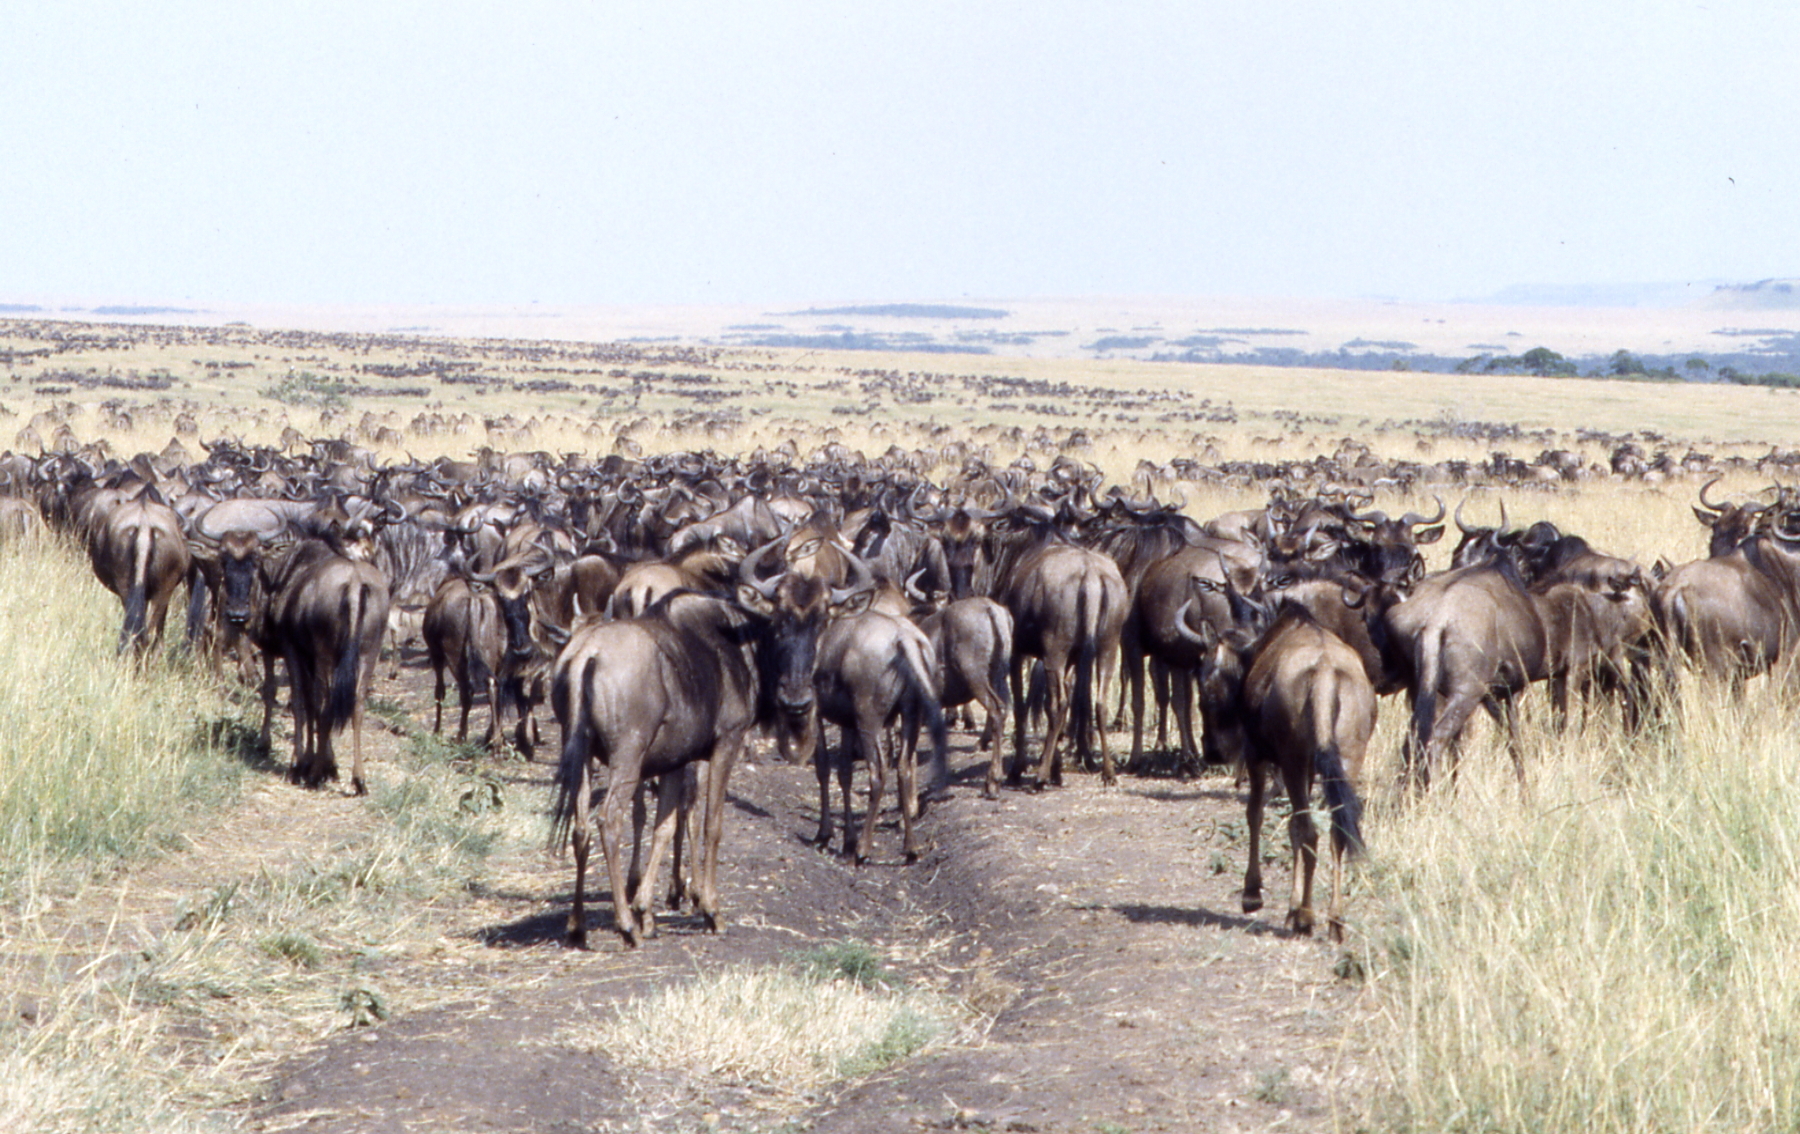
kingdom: Animalia
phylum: Chordata
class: Mammalia
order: Artiodactyla
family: Bovidae
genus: Connochaetes
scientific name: Connochaetes taurinus
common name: Blue wildebeest
